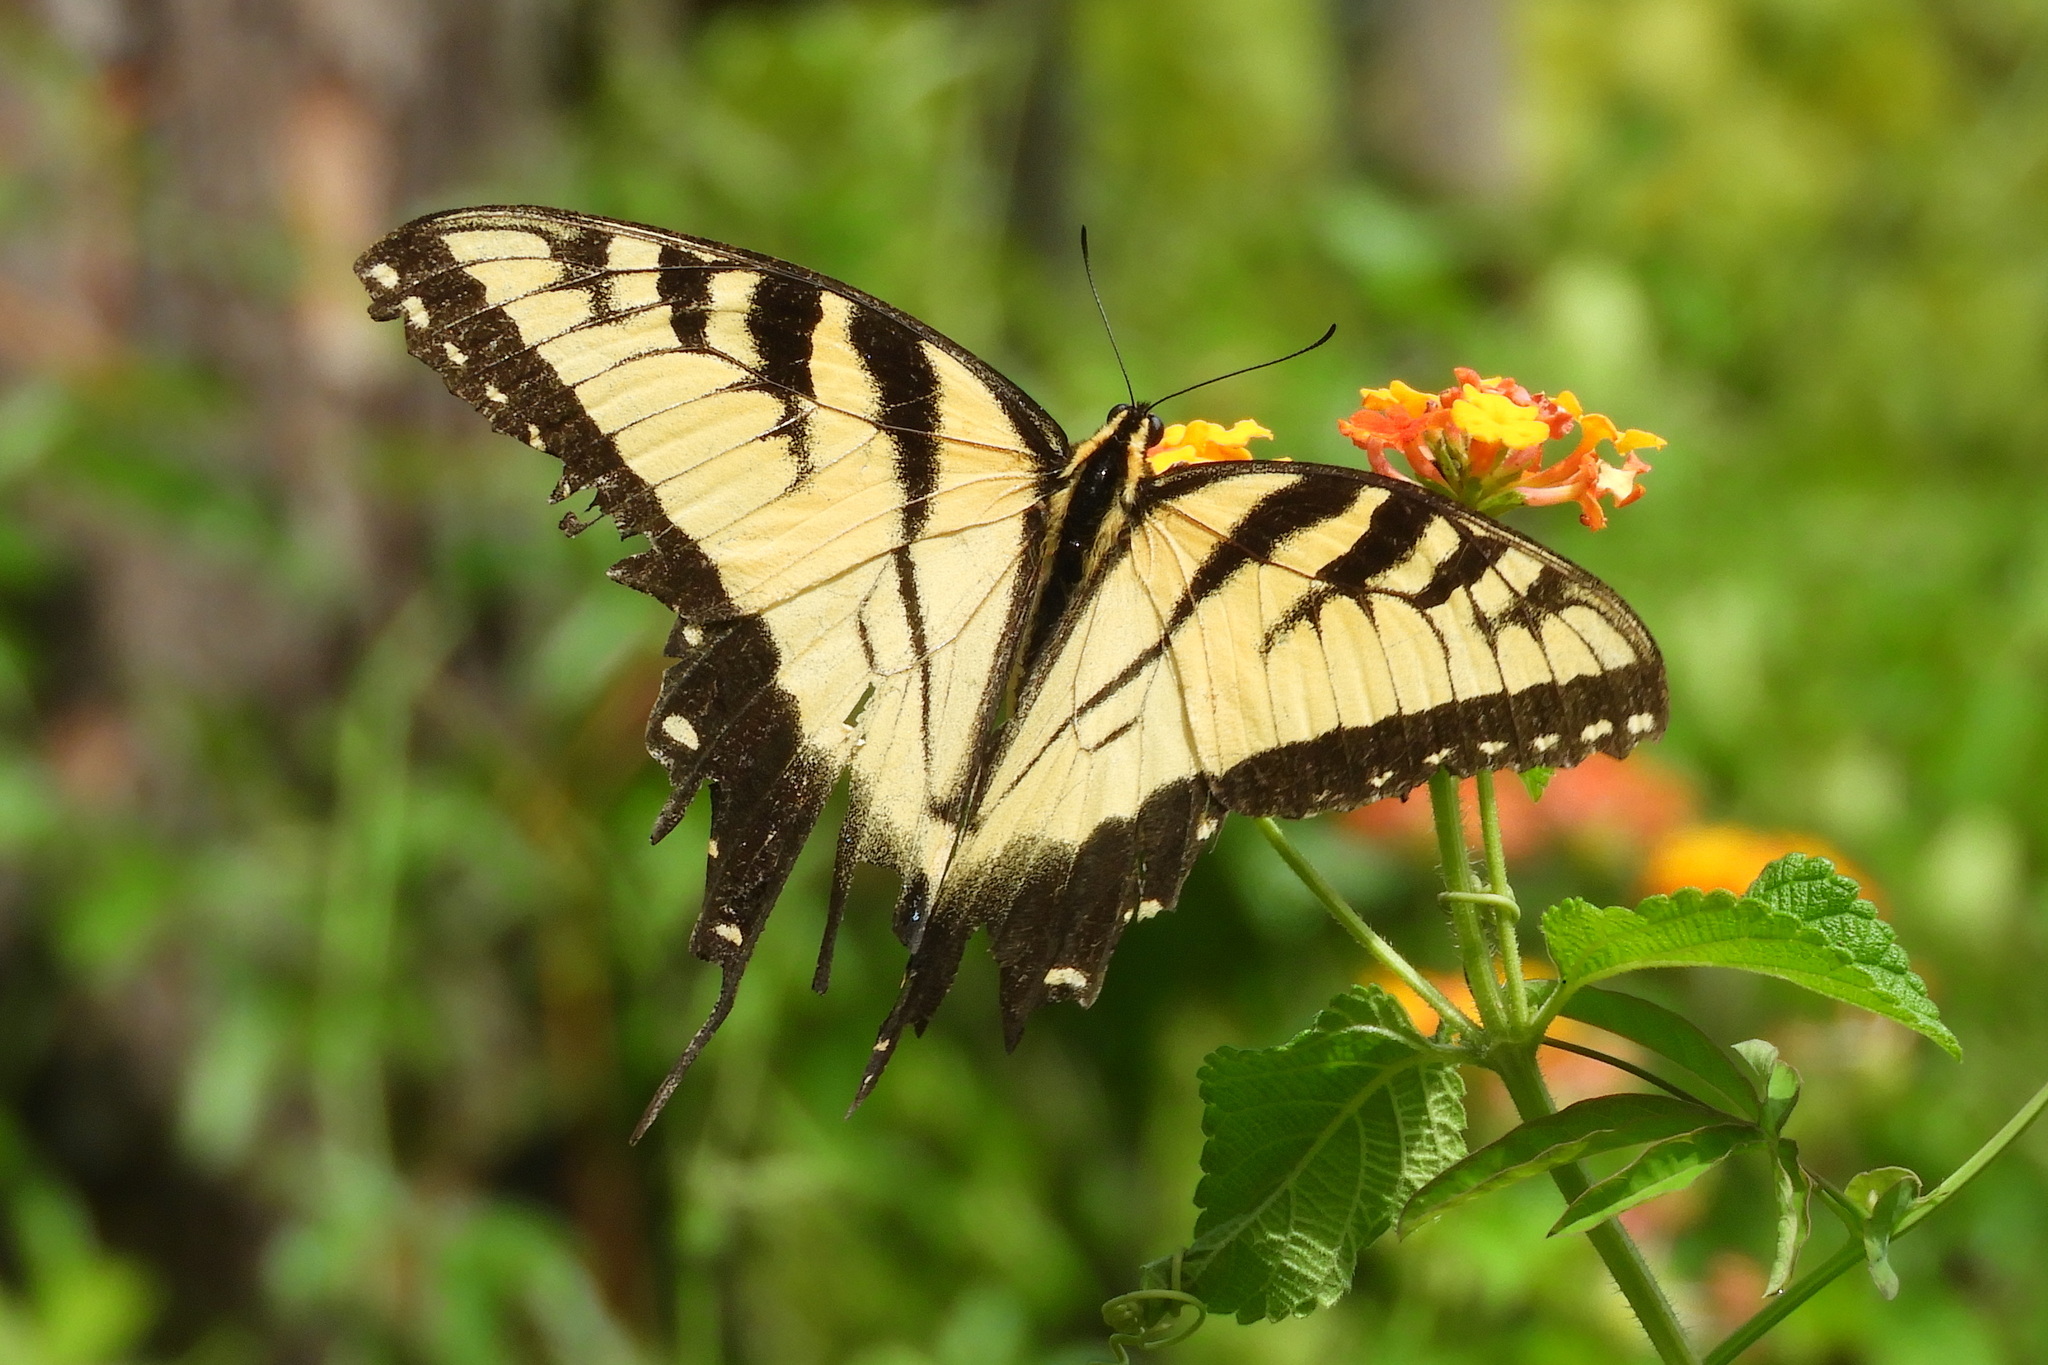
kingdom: Animalia
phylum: Arthropoda
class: Insecta
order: Lepidoptera
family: Papilionidae
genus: Papilio
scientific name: Papilio glaucus
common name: Tiger swallowtail
